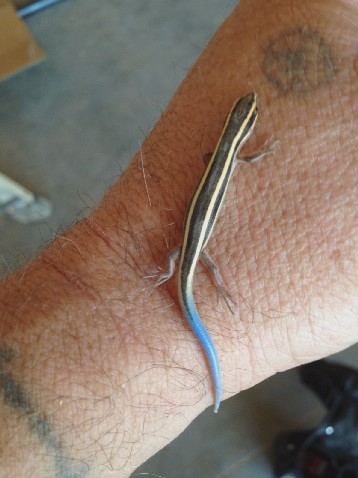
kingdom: Animalia
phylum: Chordata
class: Squamata
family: Scincidae
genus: Plestiodon
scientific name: Plestiodon gilberti
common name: Gilbert's skink
